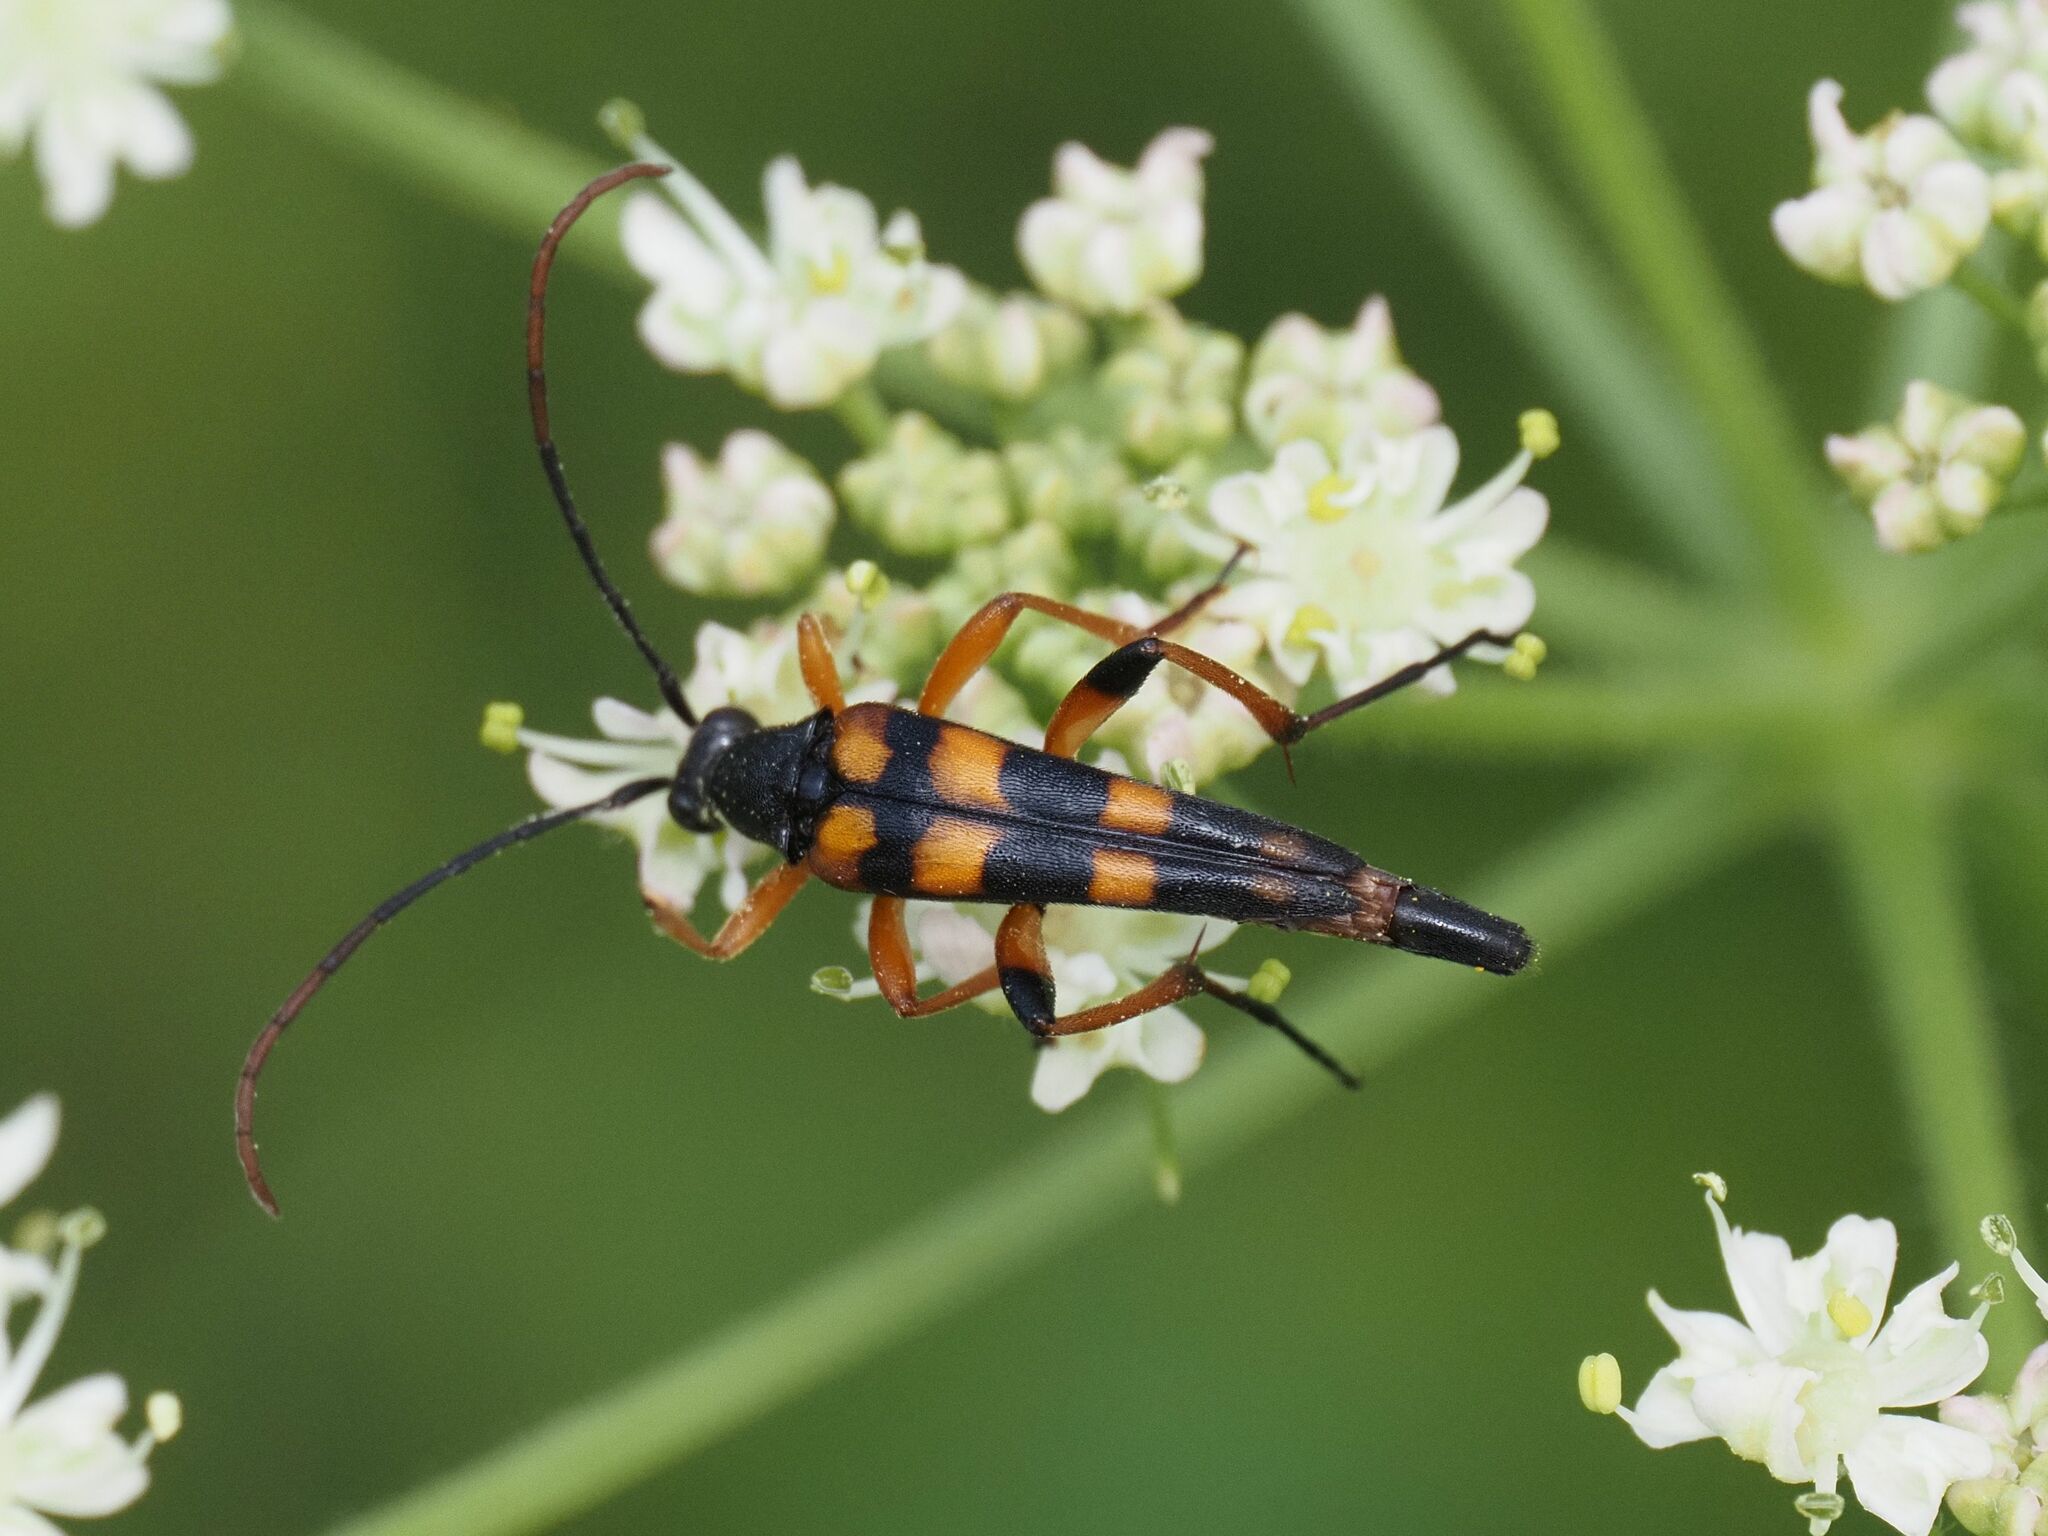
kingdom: Animalia
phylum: Arthropoda
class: Insecta
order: Coleoptera
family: Cerambycidae
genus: Strangalia
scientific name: Strangalia attenuata
